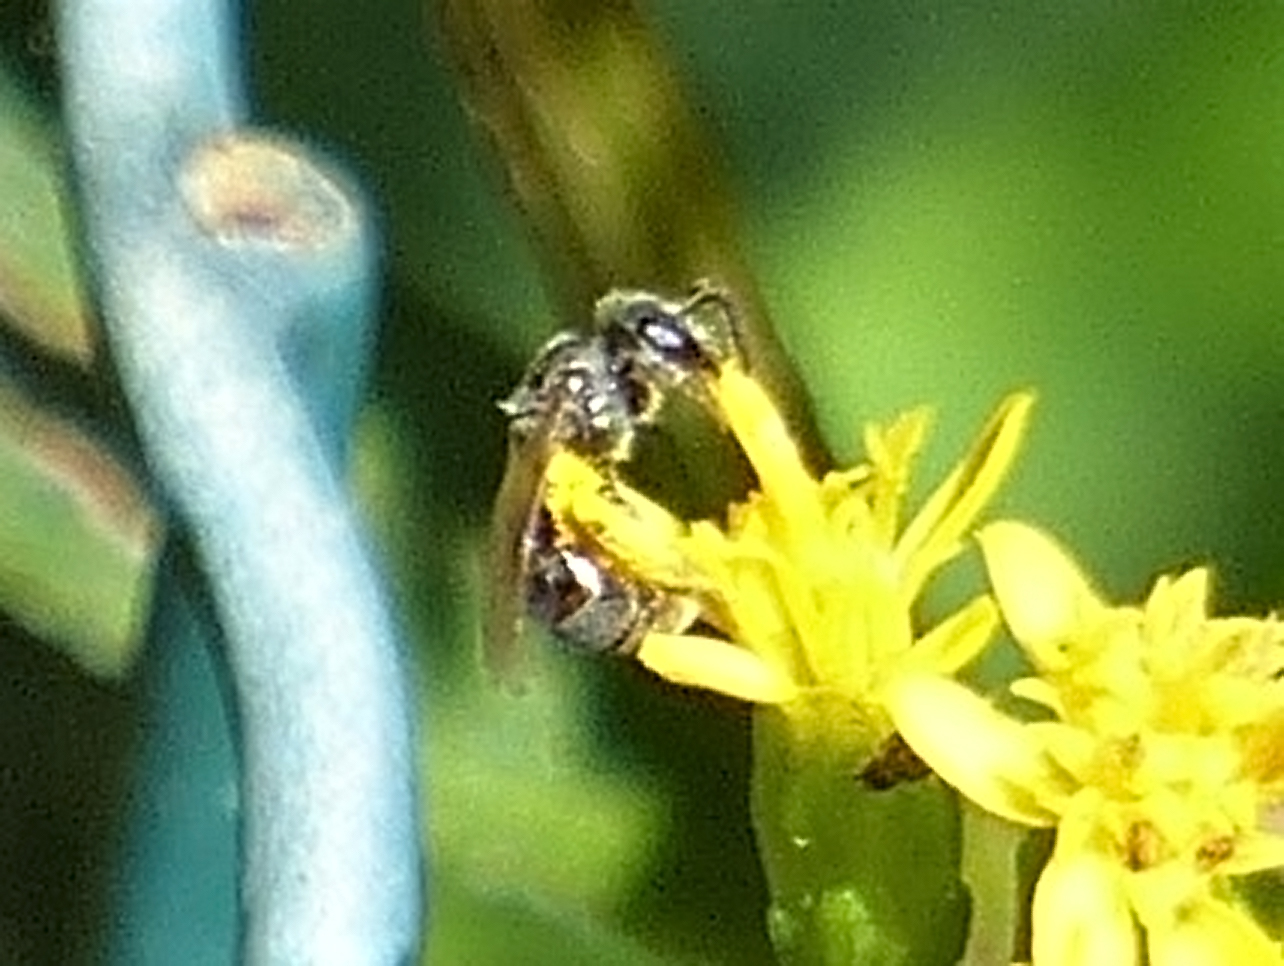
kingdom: Animalia
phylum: Arthropoda
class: Insecta
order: Hymenoptera
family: Halictidae
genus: Dialictus
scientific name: Dialictus
